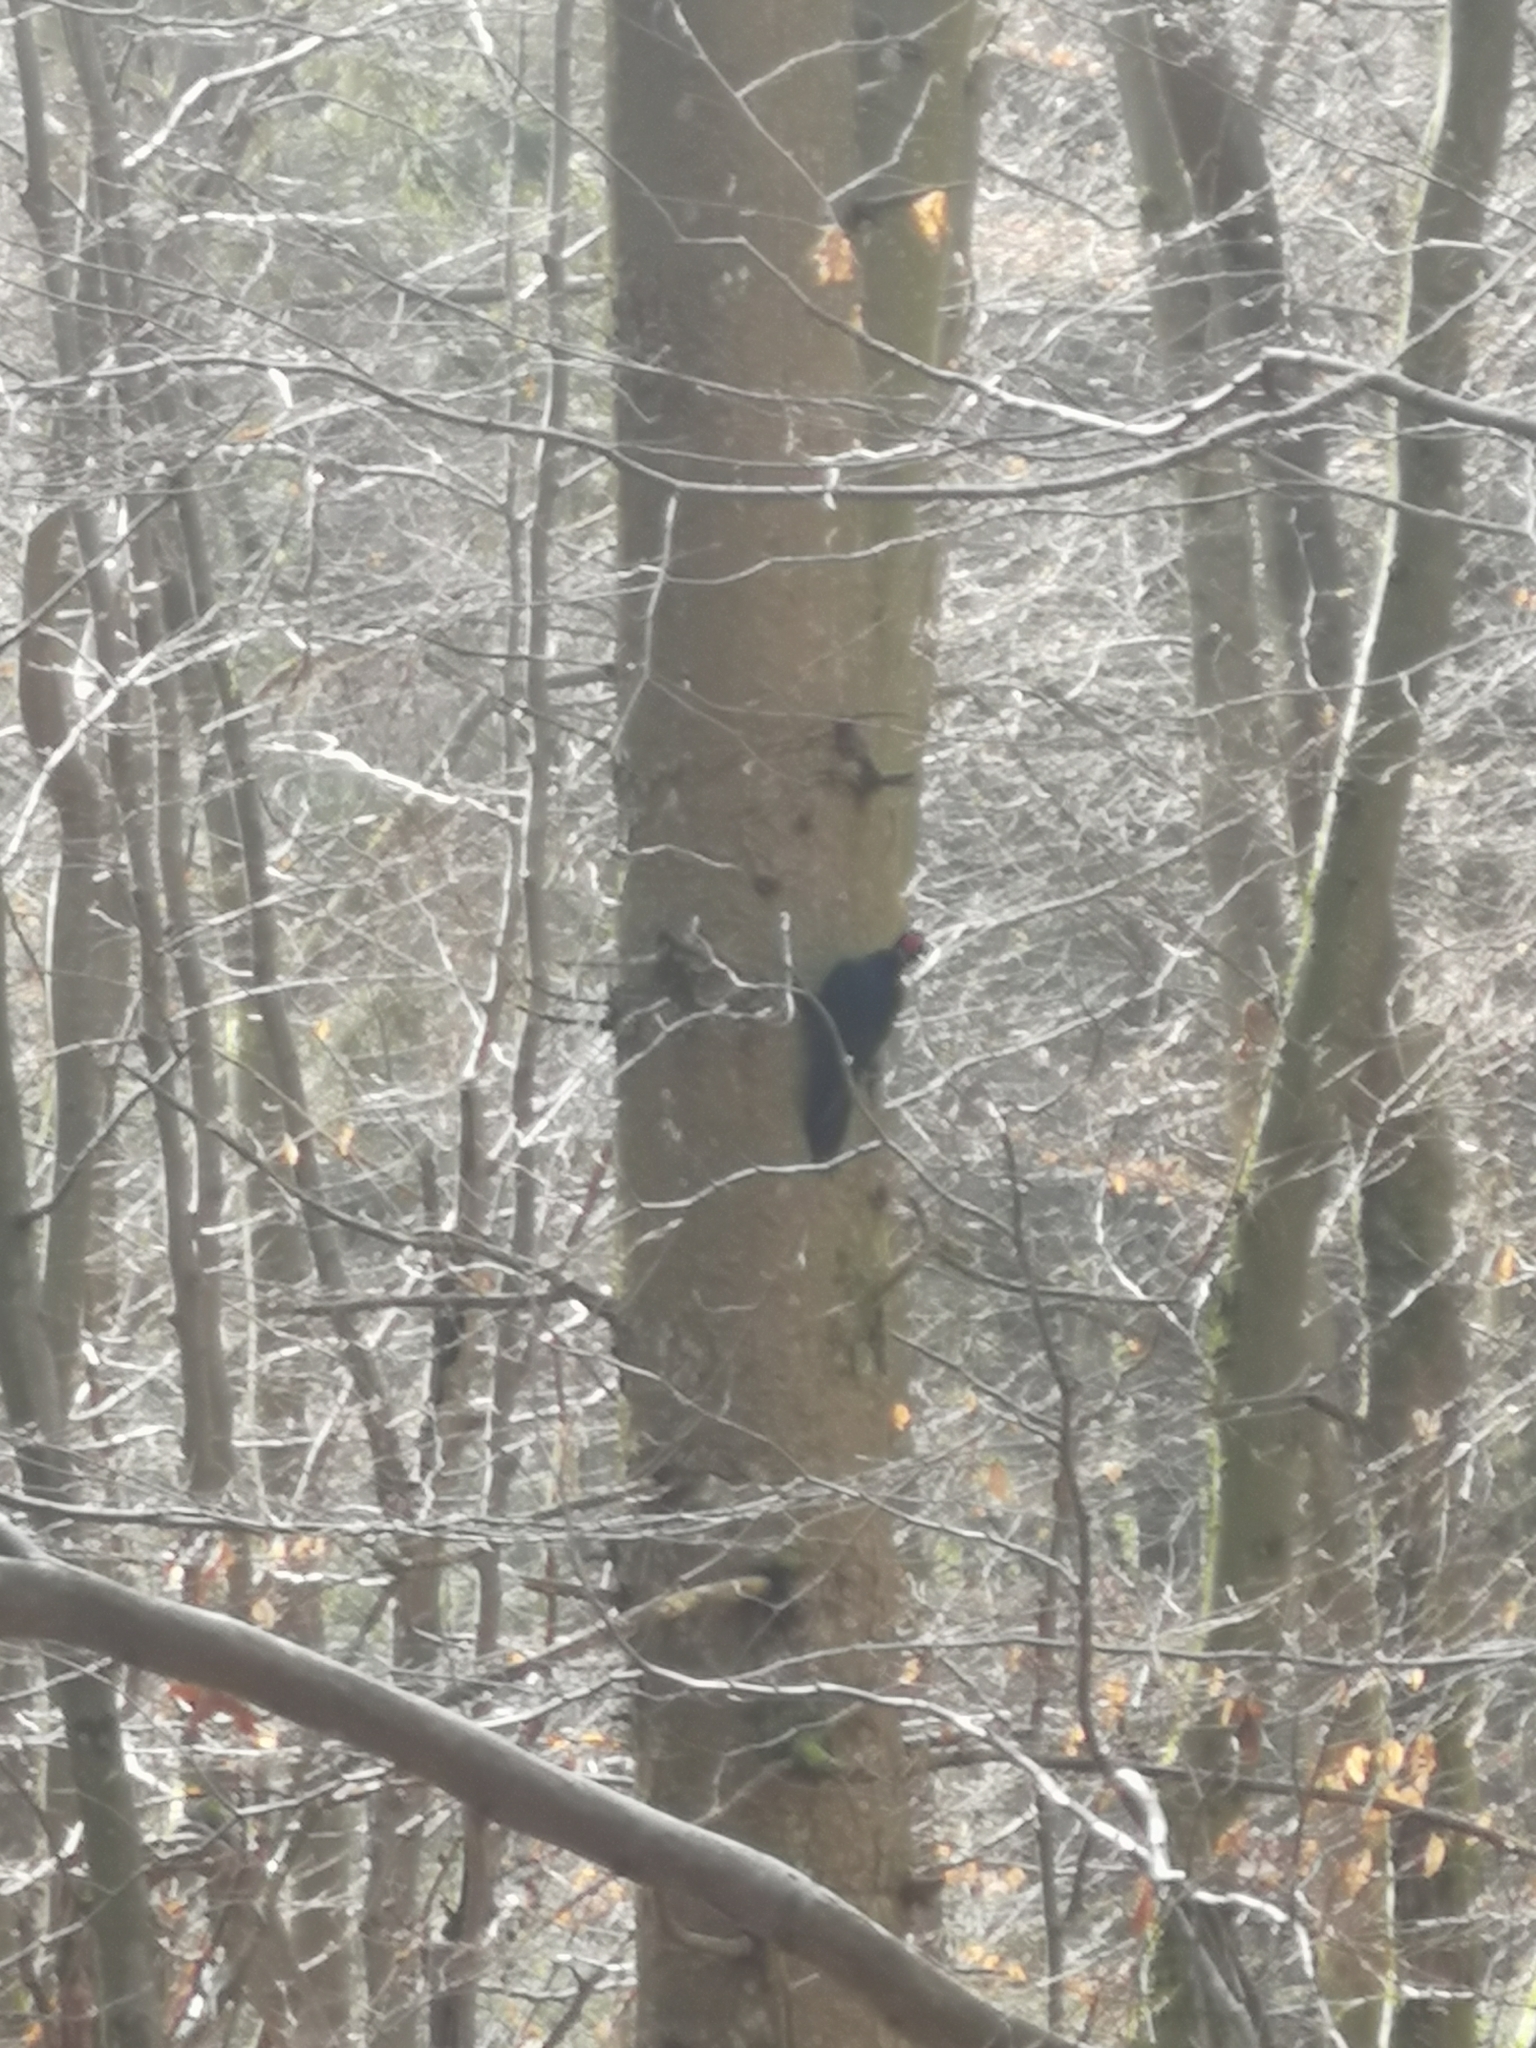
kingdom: Animalia
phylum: Chordata
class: Aves
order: Piciformes
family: Picidae
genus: Dryocopus
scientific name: Dryocopus martius
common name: Black woodpecker
